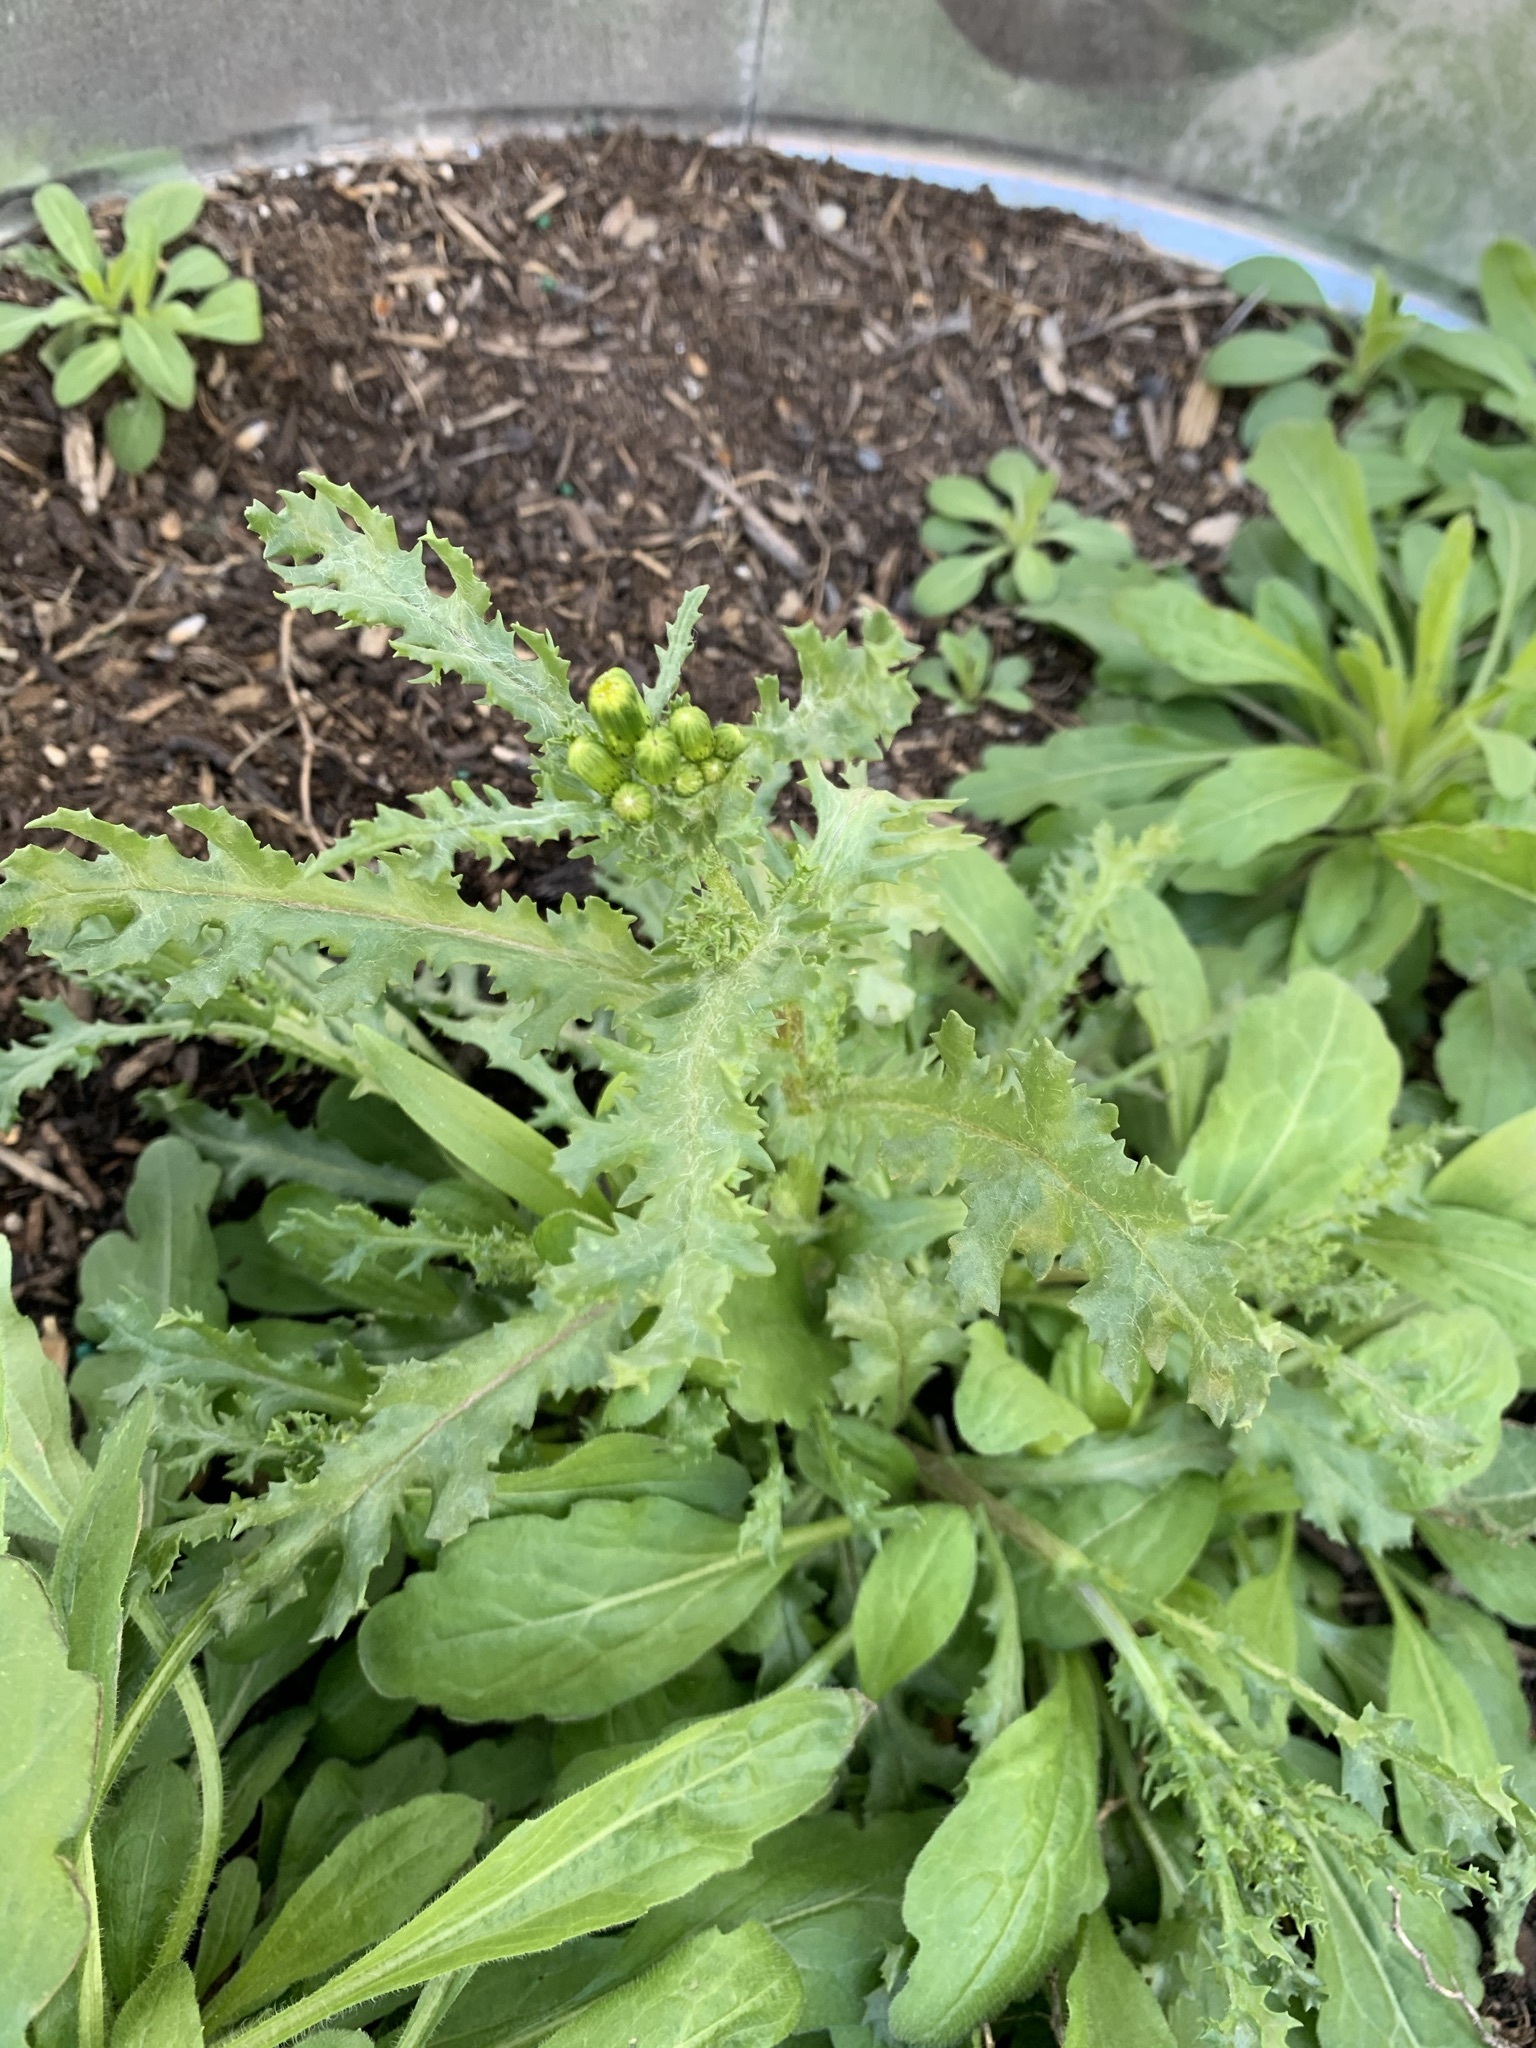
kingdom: Plantae
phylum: Tracheophyta
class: Magnoliopsida
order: Asterales
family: Asteraceae
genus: Senecio
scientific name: Senecio vulgaris
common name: Old-man-in-the-spring
